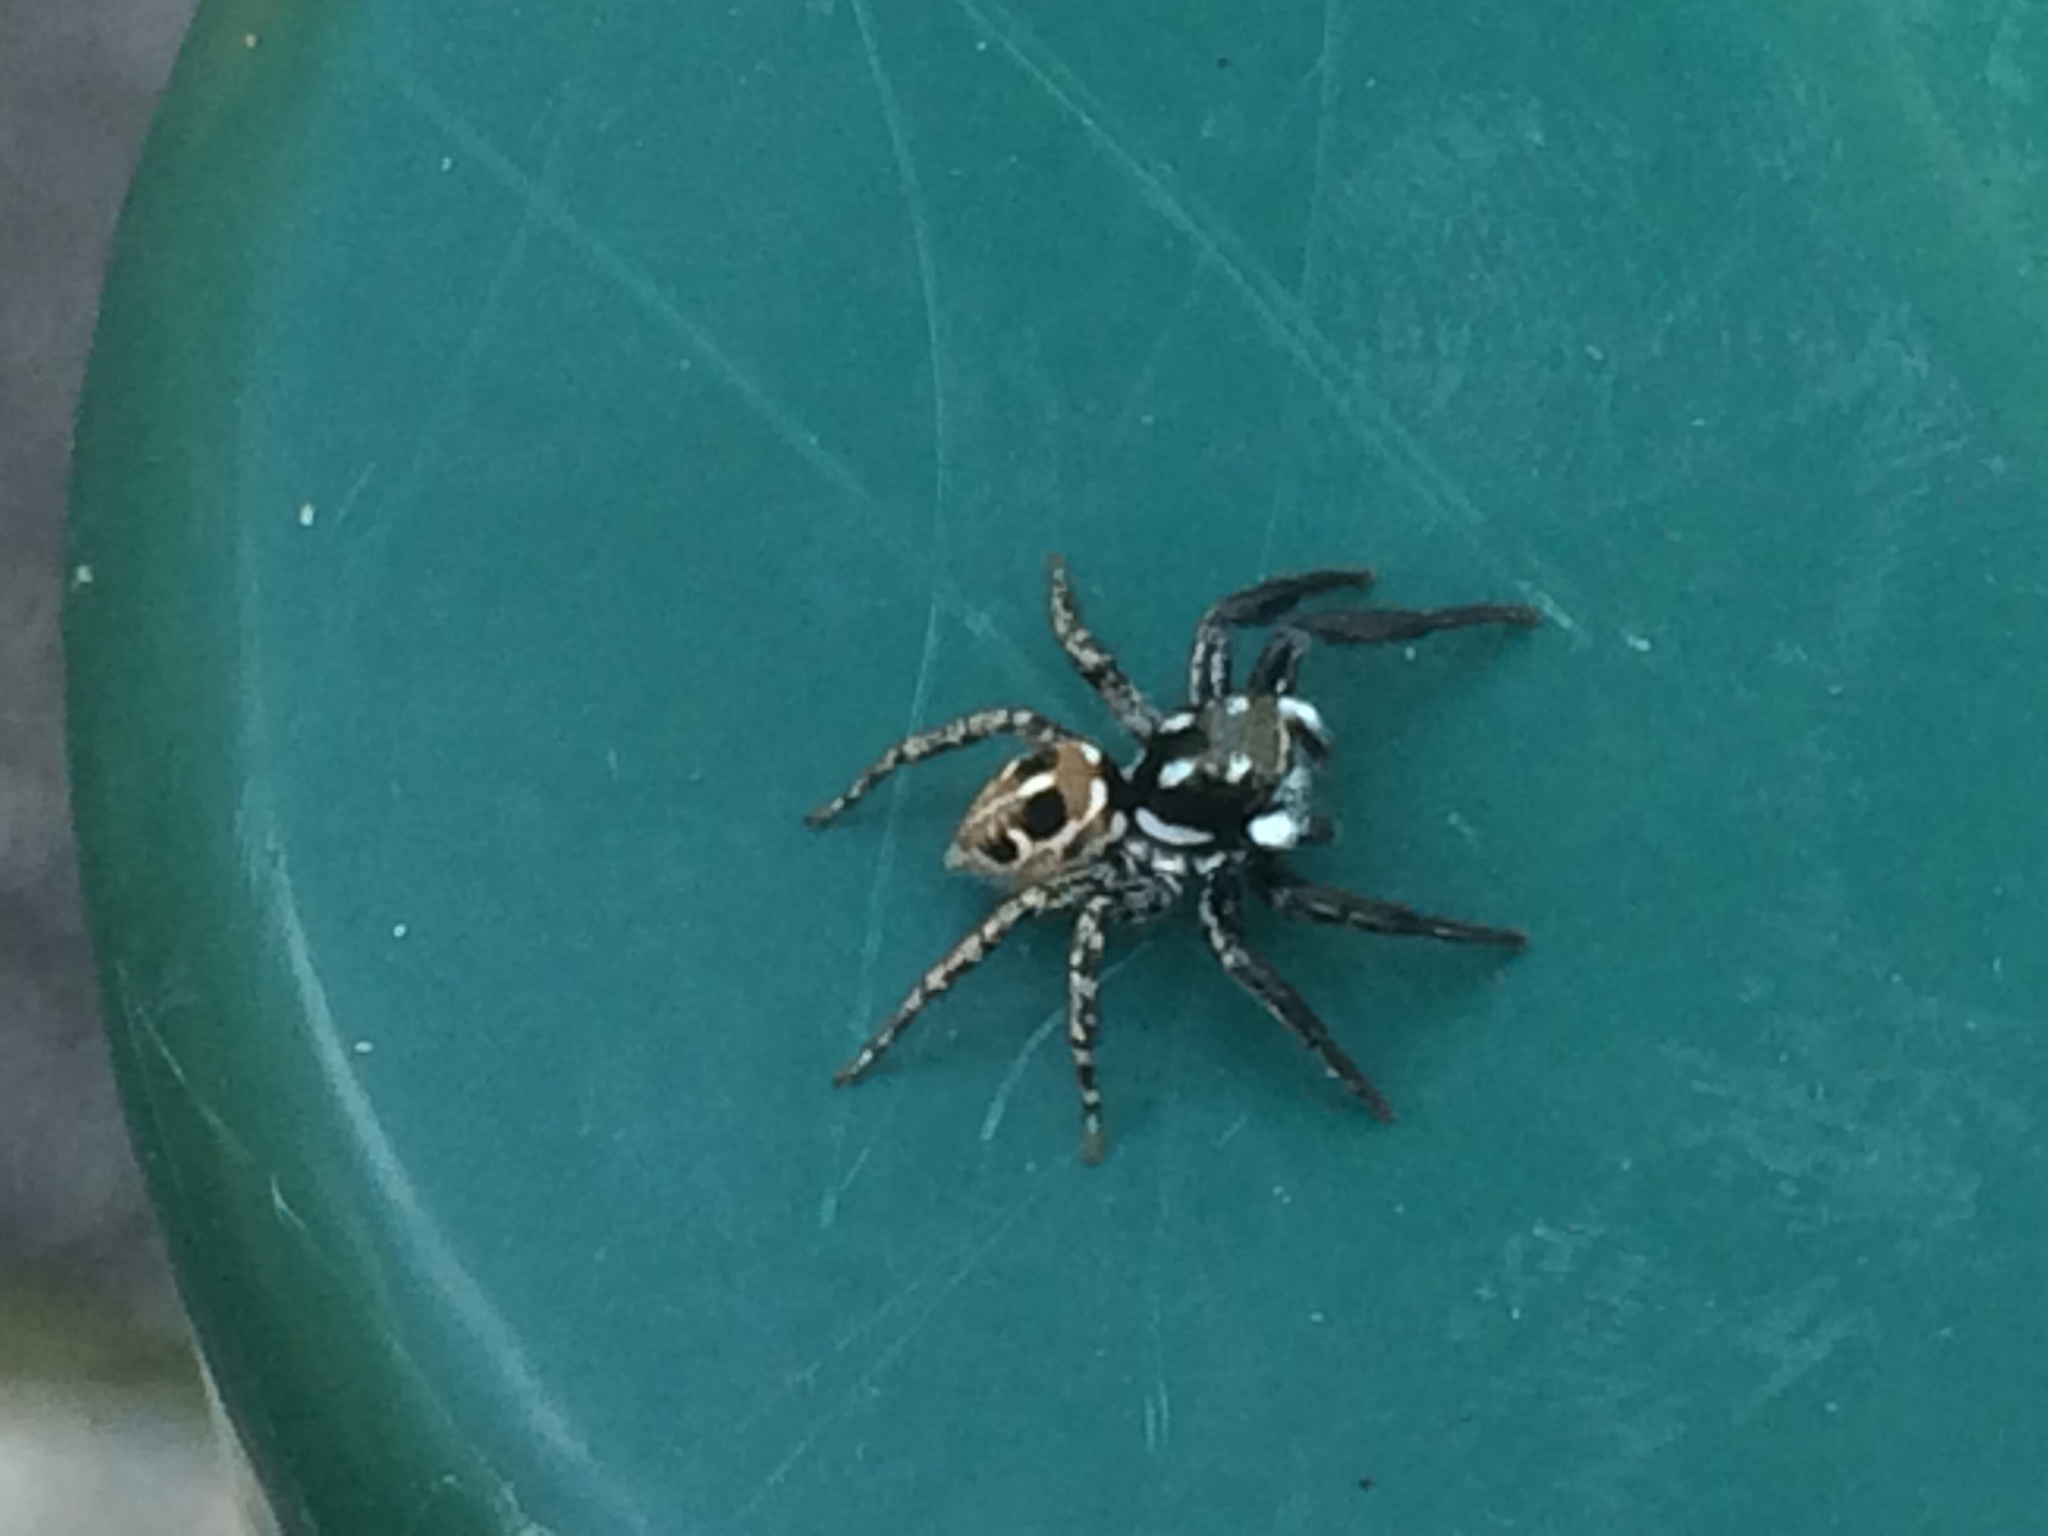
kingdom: Animalia
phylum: Arthropoda
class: Arachnida
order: Araneae
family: Salticidae
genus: Anasaitis
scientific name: Anasaitis canosa
